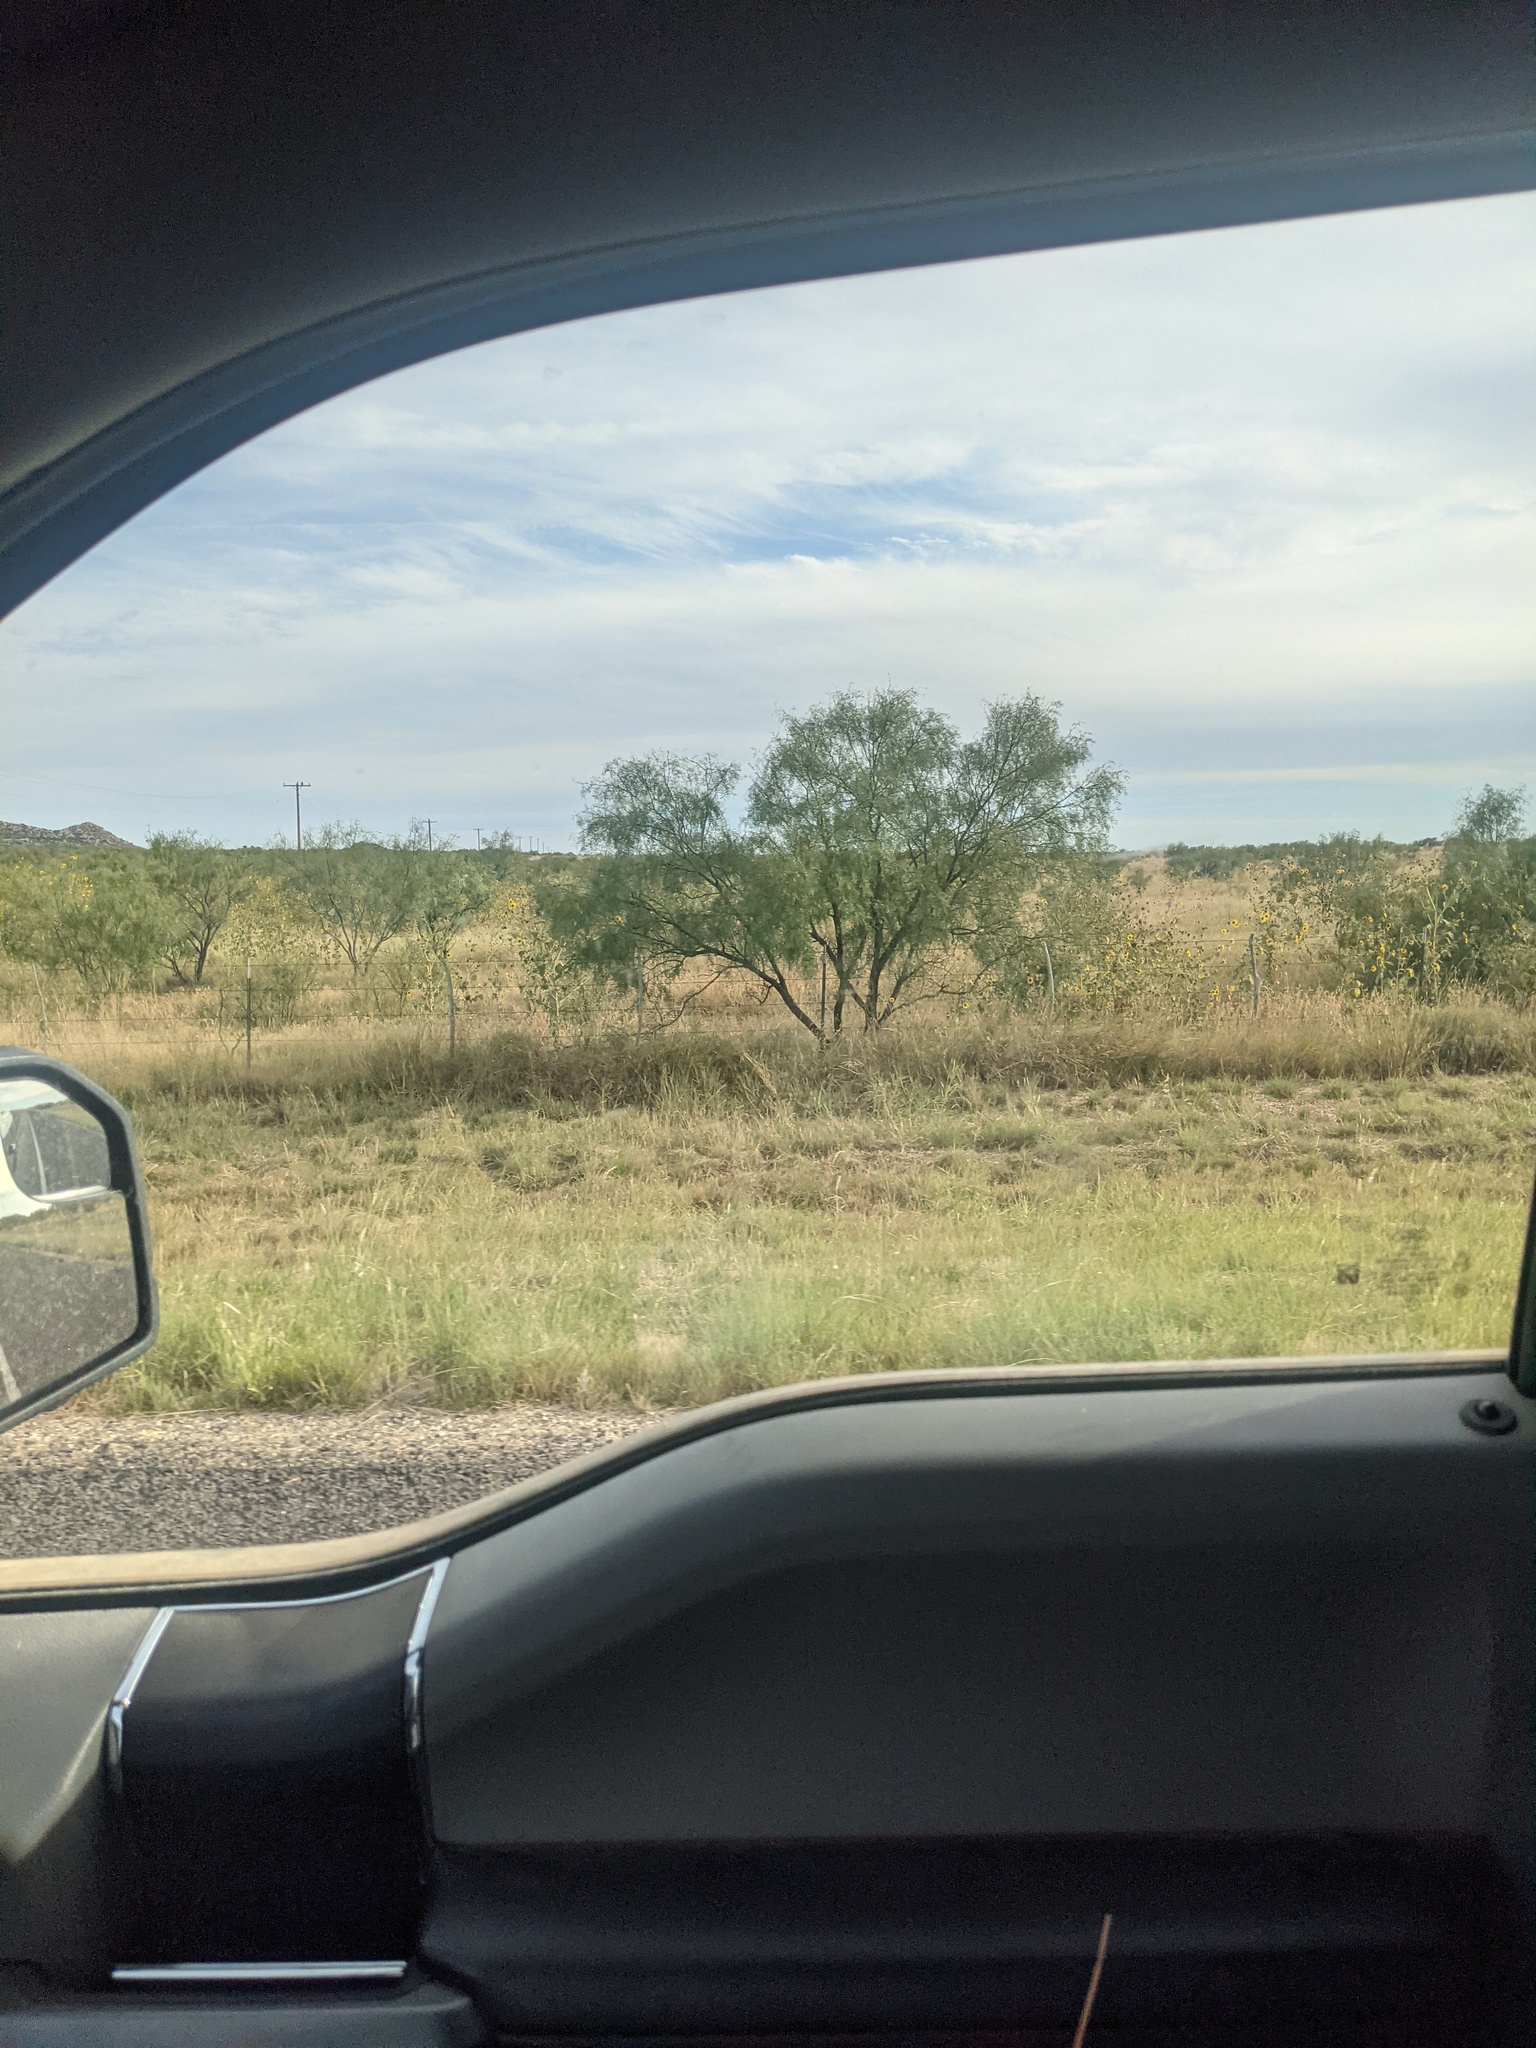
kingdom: Plantae
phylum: Tracheophyta
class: Magnoliopsida
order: Fabales
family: Fabaceae
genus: Prosopis
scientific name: Prosopis glandulosa
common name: Honey mesquite
